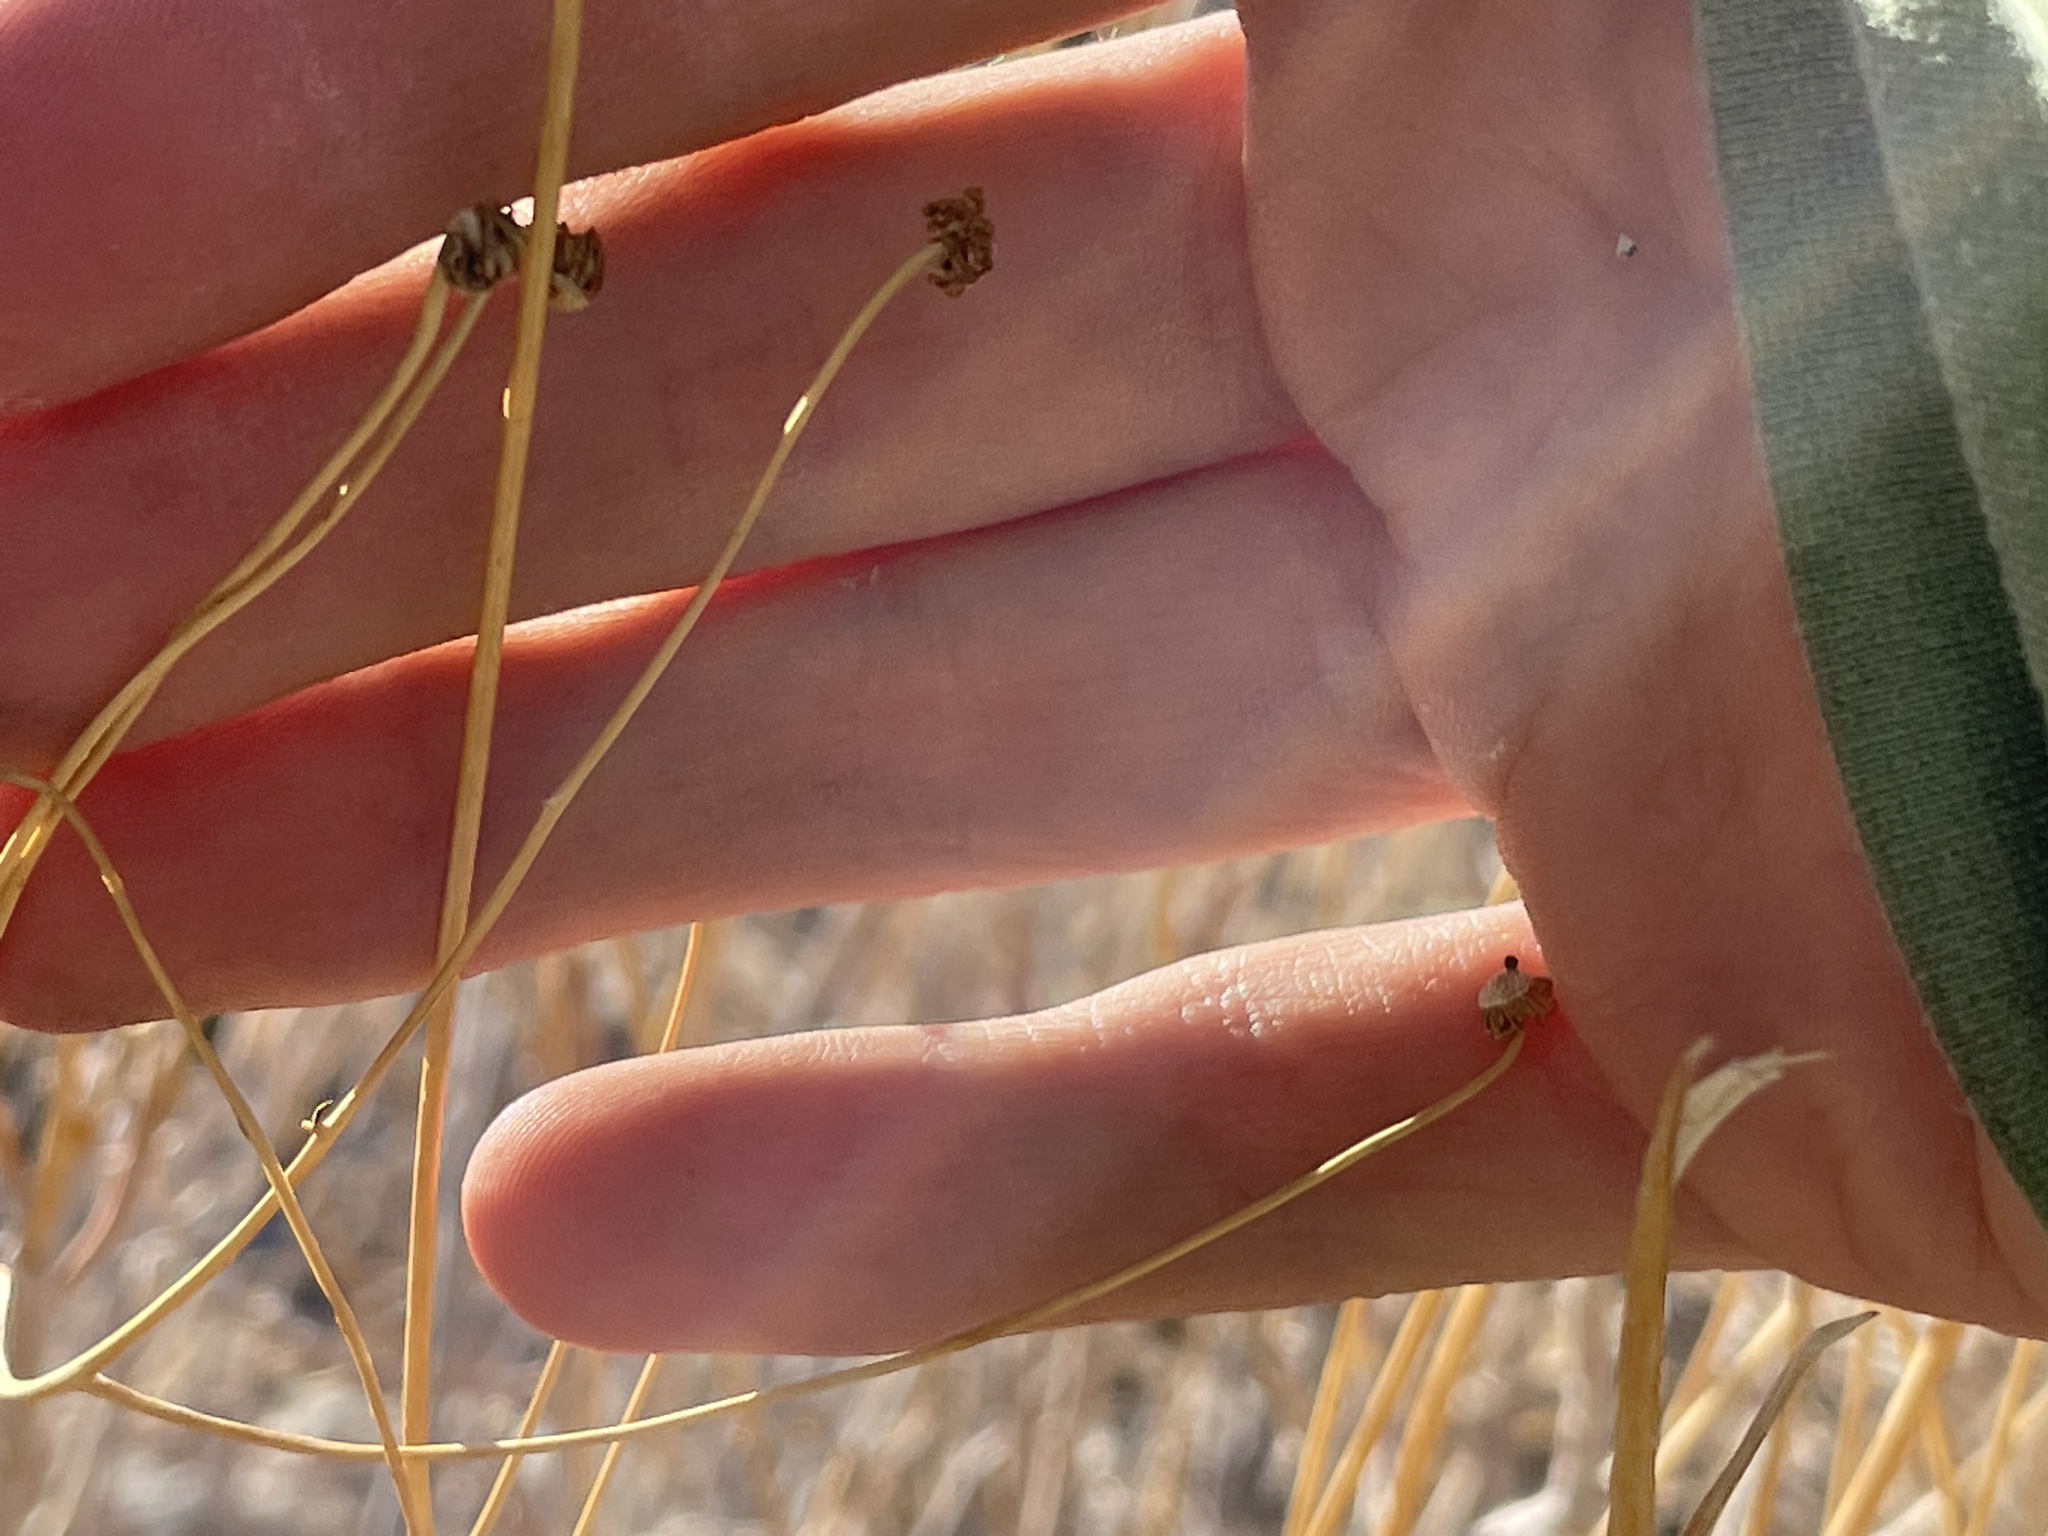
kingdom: Plantae
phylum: Tracheophyta
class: Magnoliopsida
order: Asterales
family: Asteraceae
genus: Encelia
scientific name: Encelia farinosa
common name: Brittlebush
